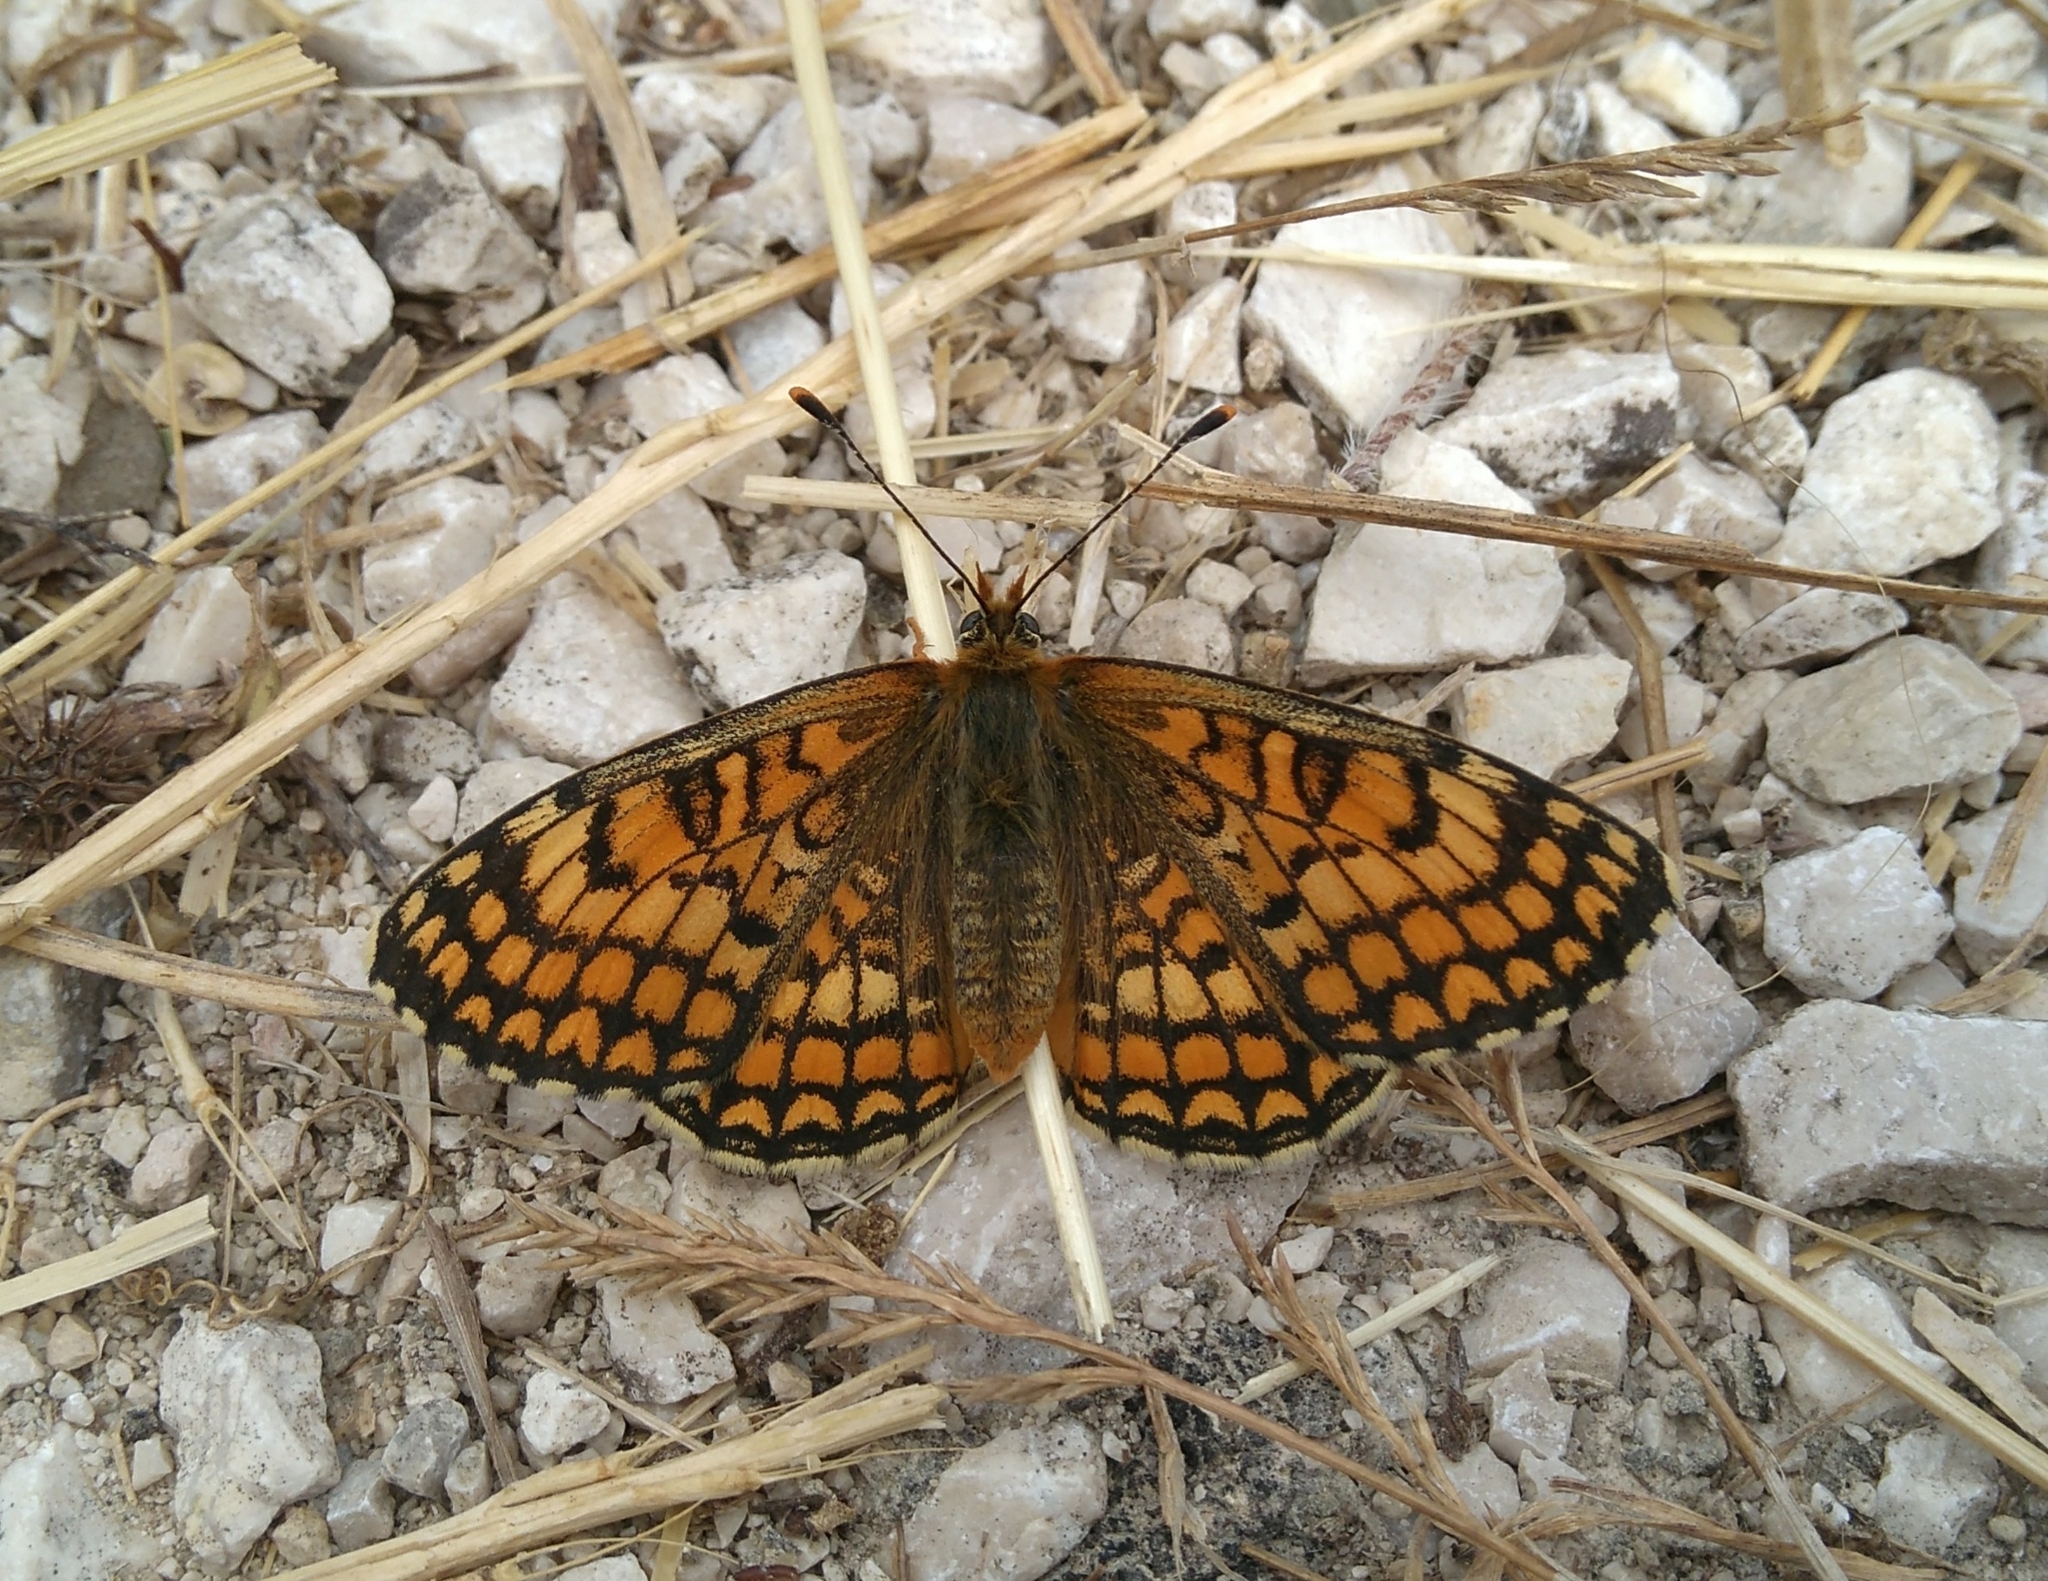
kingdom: Animalia
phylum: Arthropoda
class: Insecta
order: Lepidoptera
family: Nymphalidae
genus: Melitaea
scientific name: Melitaea deione
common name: Provençal fritillary
